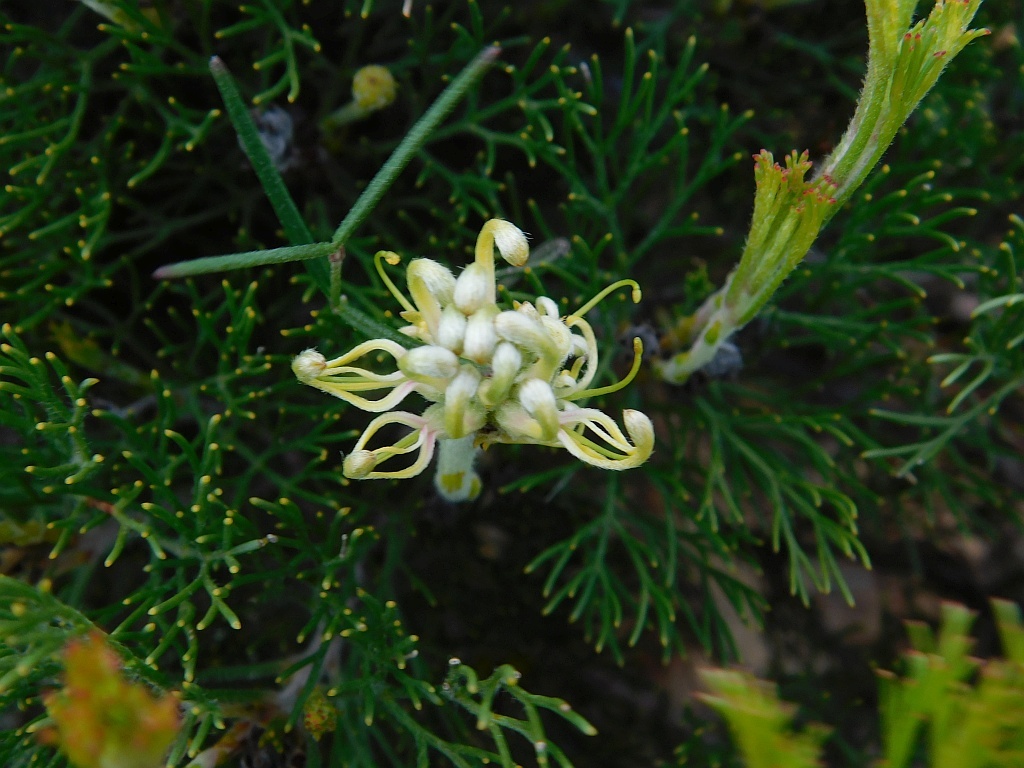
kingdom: Plantae
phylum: Tracheophyta
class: Magnoliopsida
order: Proteales
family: Proteaceae
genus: Serruria
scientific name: Serruria
